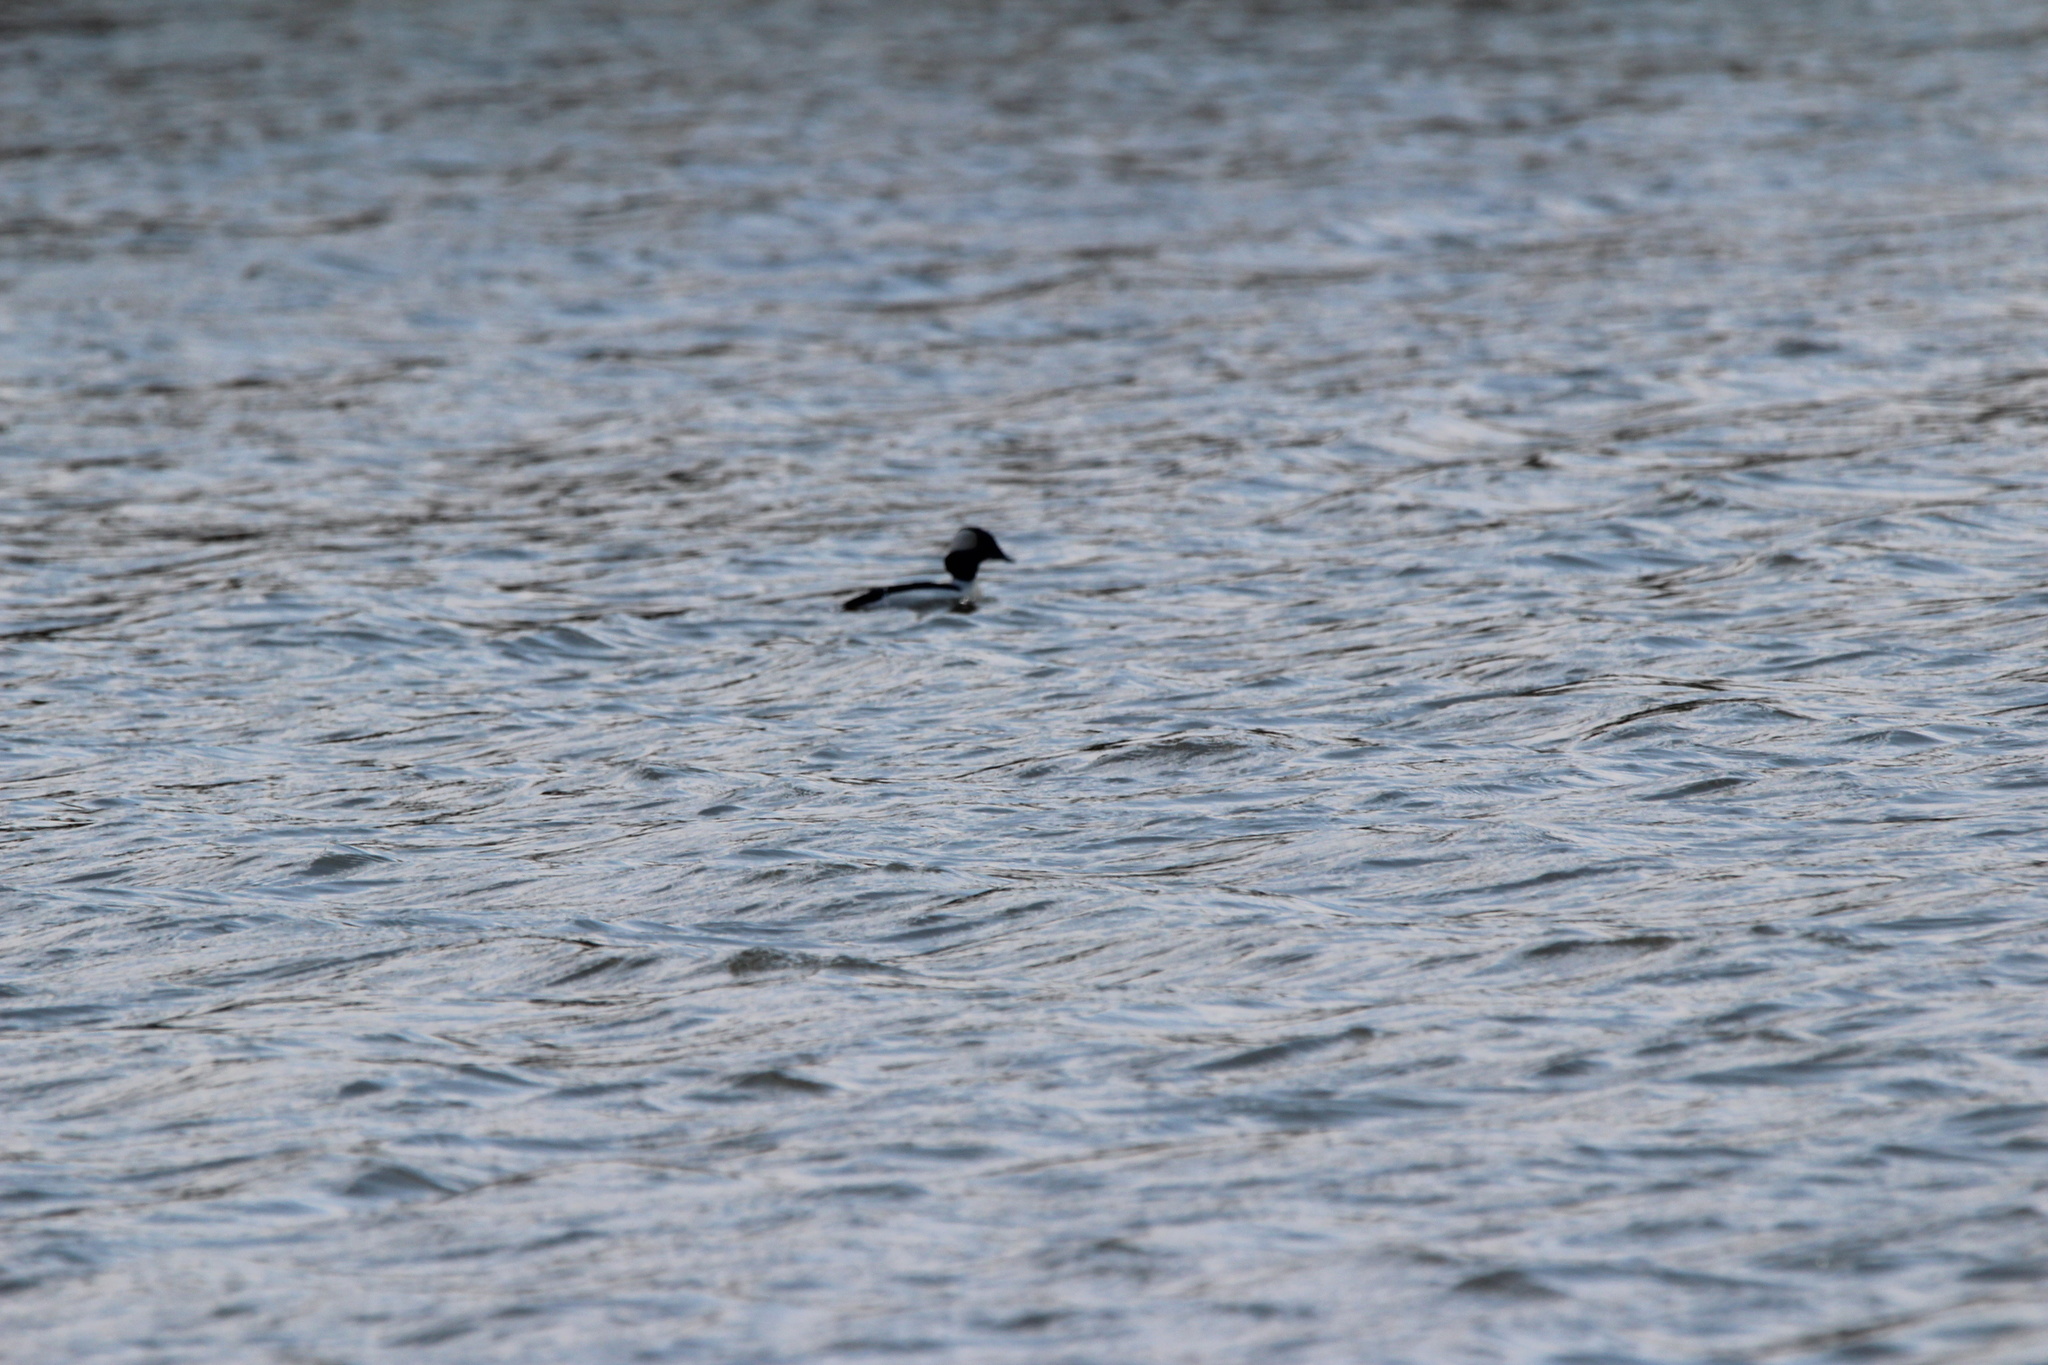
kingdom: Animalia
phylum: Chordata
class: Aves
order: Anseriformes
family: Anatidae
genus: Bucephala
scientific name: Bucephala albeola
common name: Bufflehead
